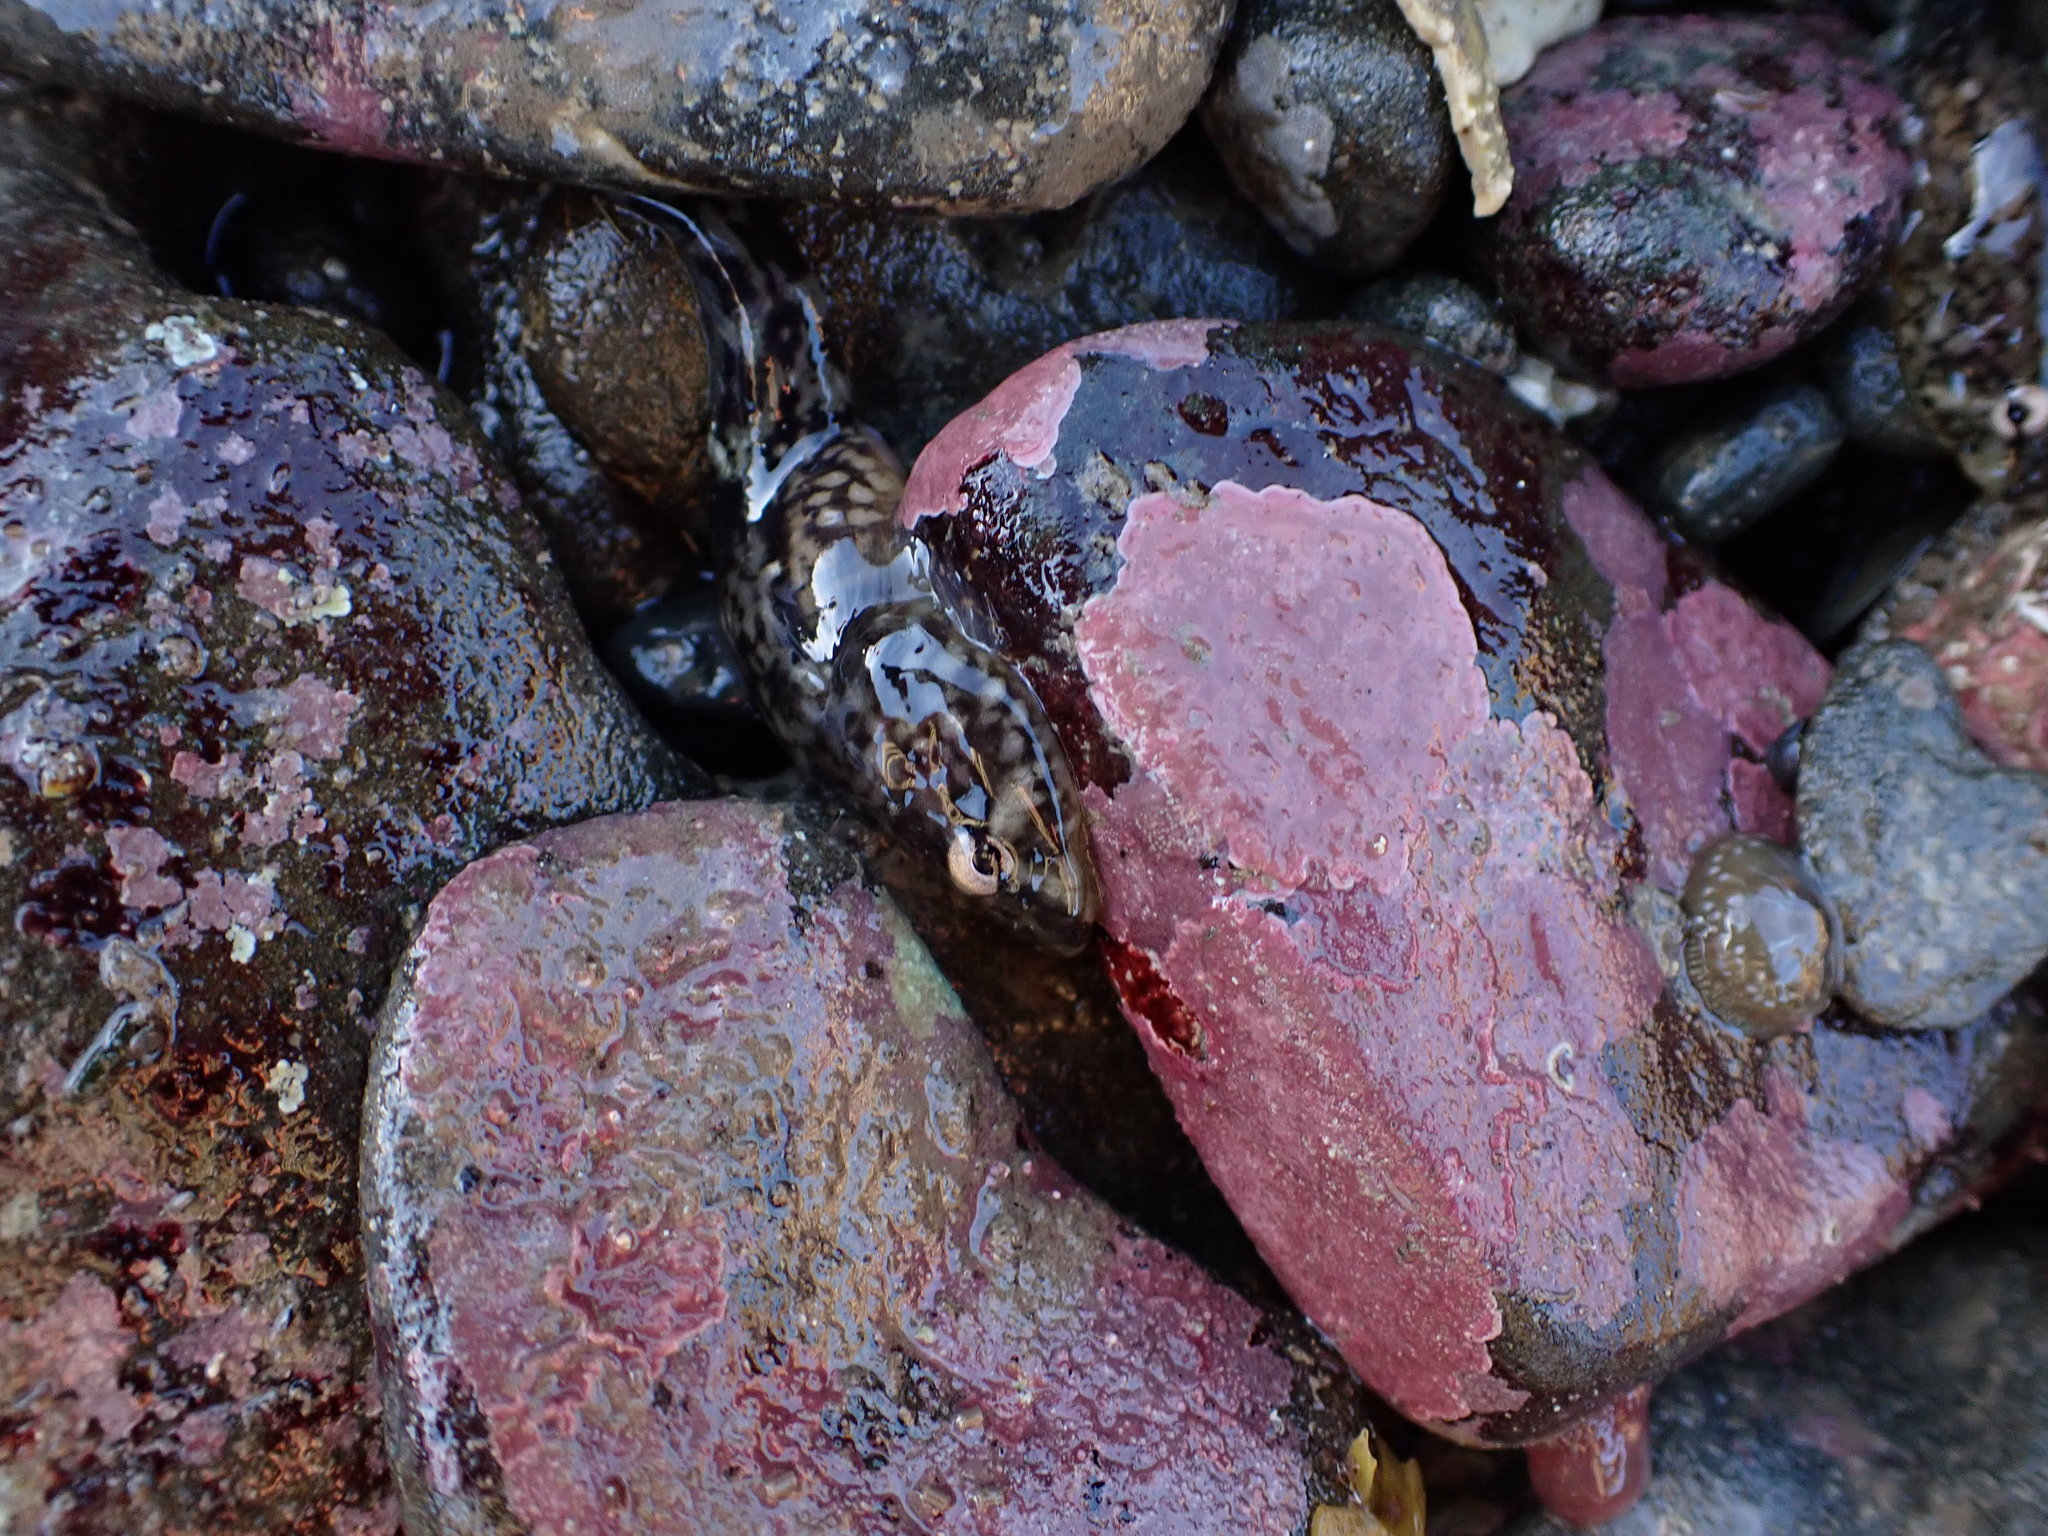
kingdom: Animalia
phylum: Chordata
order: Gobiesociformes
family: Gobiesocidae
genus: Gobiesox
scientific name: Gobiesox maeandricus
